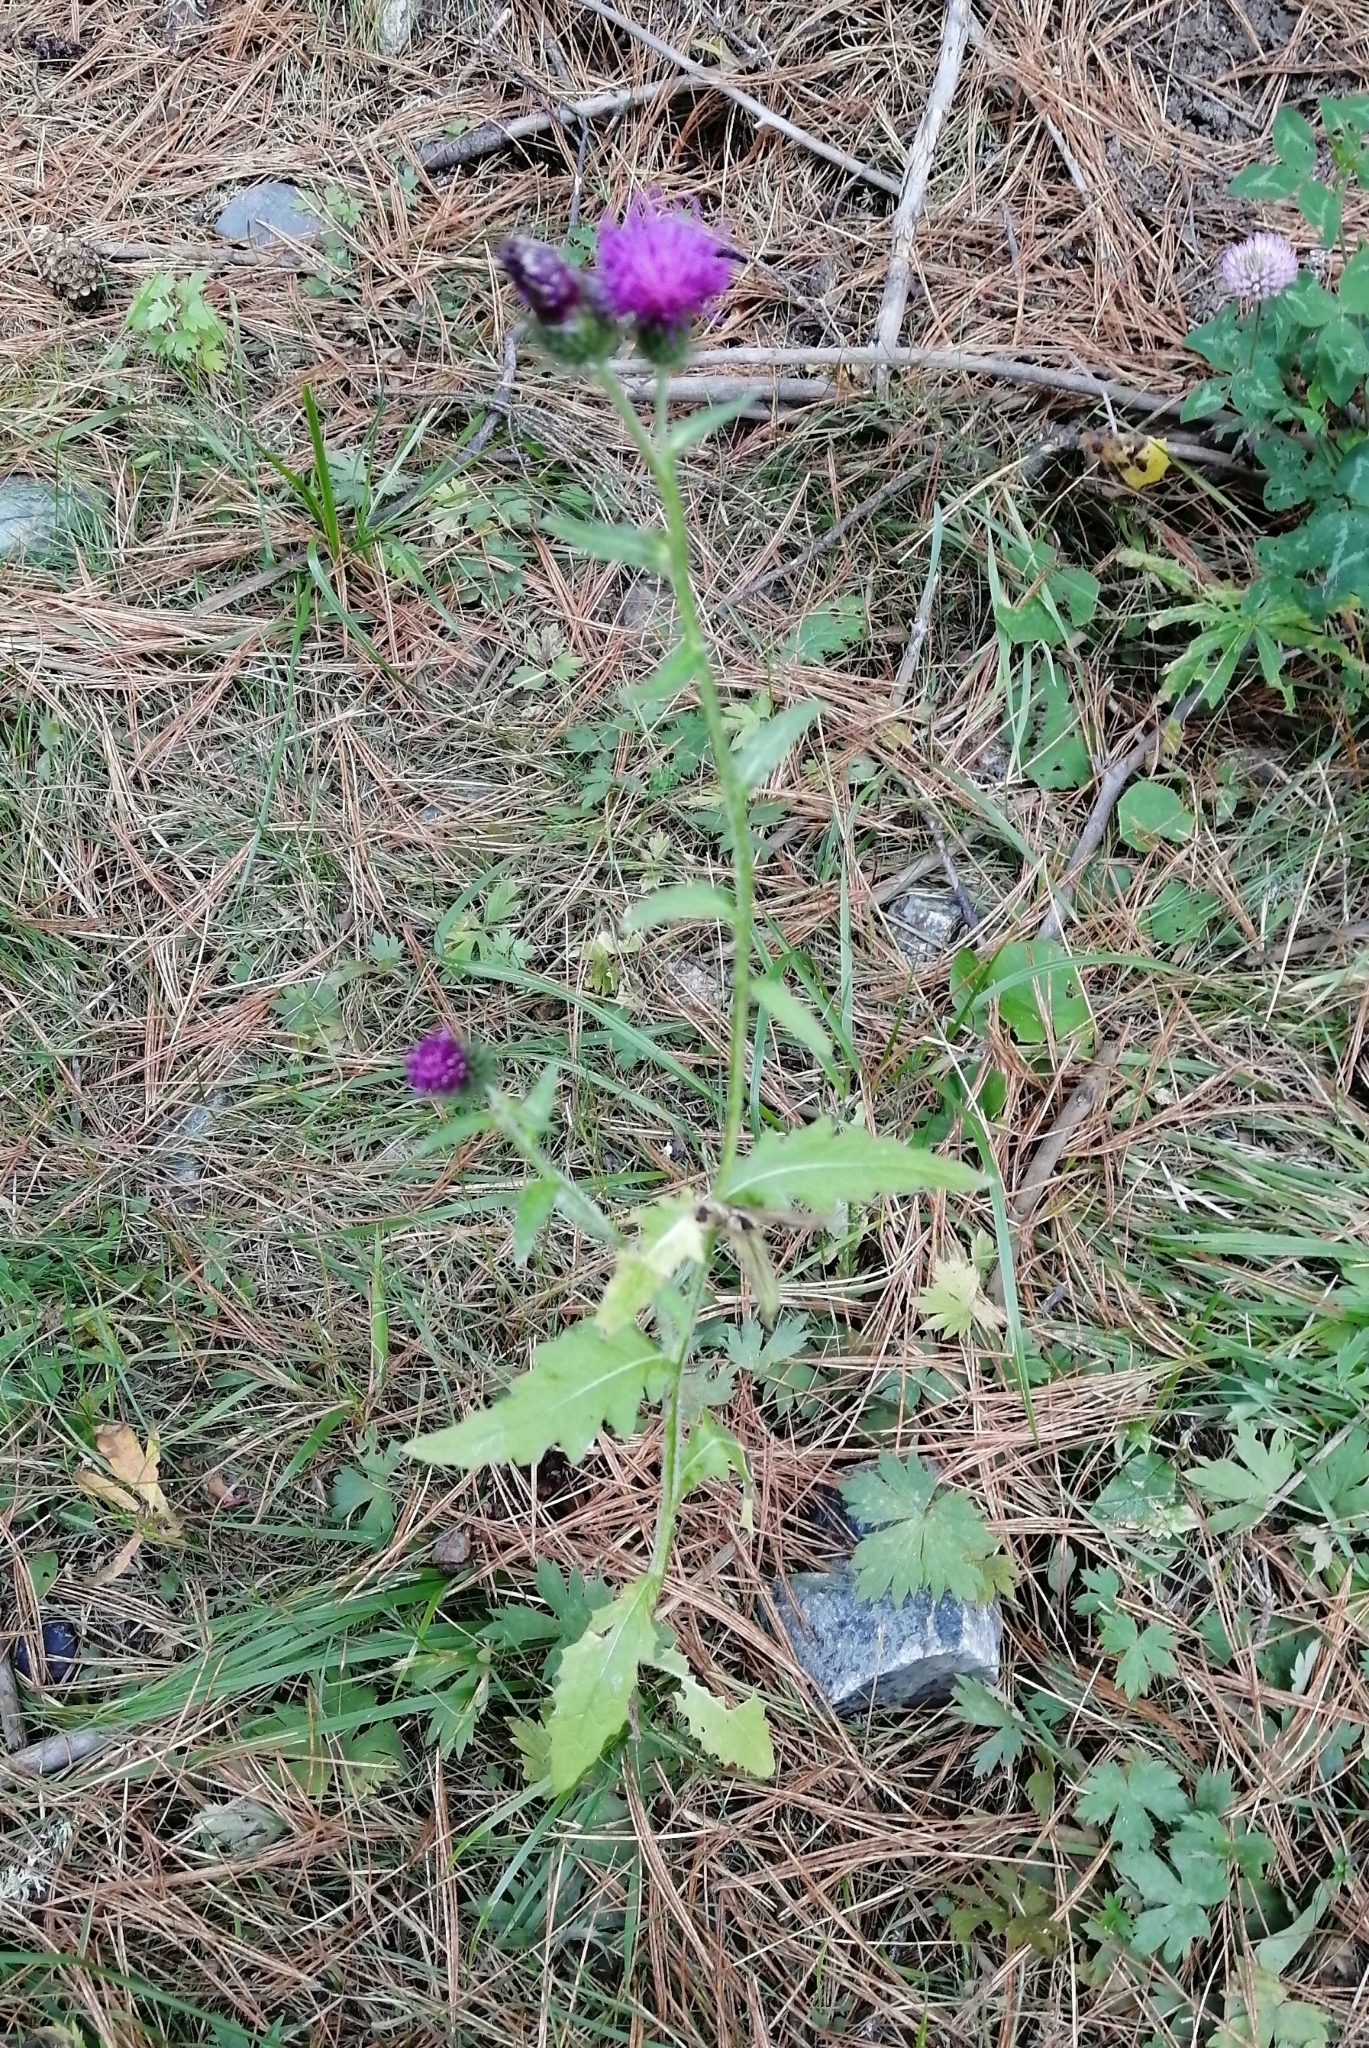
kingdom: Plantae
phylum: Tracheophyta
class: Magnoliopsida
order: Asterales
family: Asteraceae
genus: Carduus
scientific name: Carduus crispus
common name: Welted thistle
